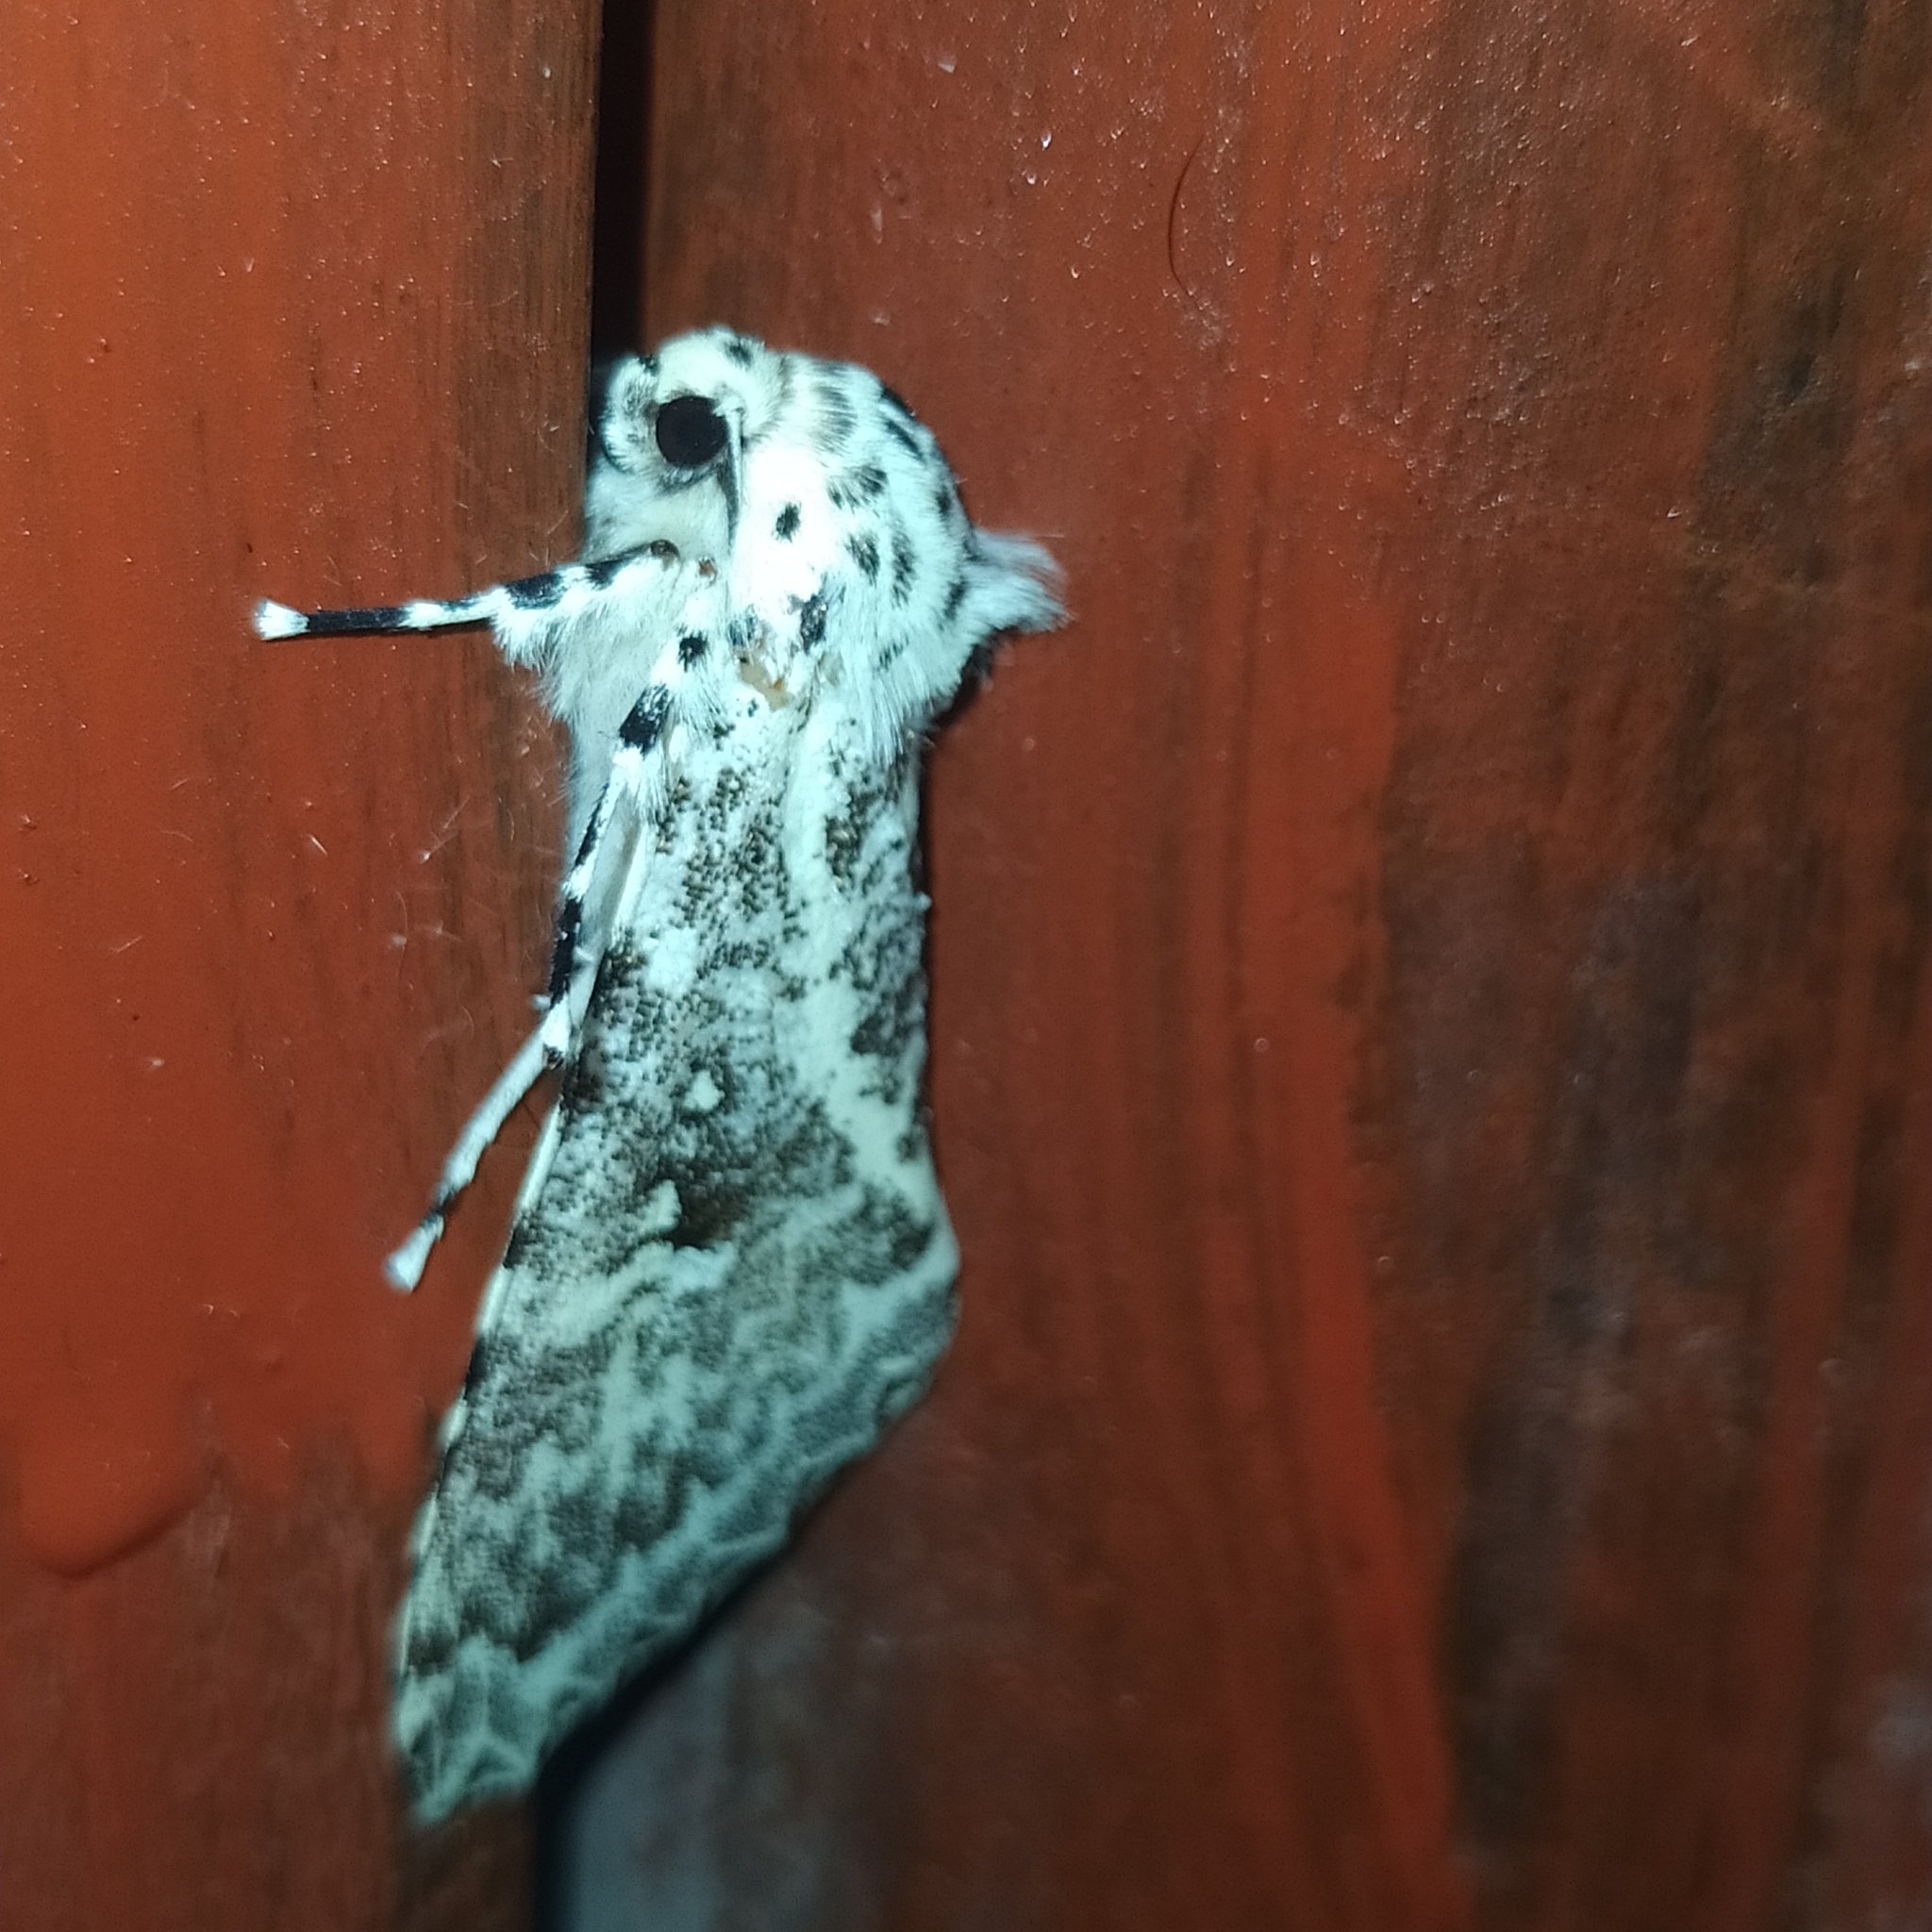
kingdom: Animalia
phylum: Arthropoda
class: Insecta
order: Lepidoptera
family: Noctuidae
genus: Lichnoptera
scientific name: Lichnoptera gulo
